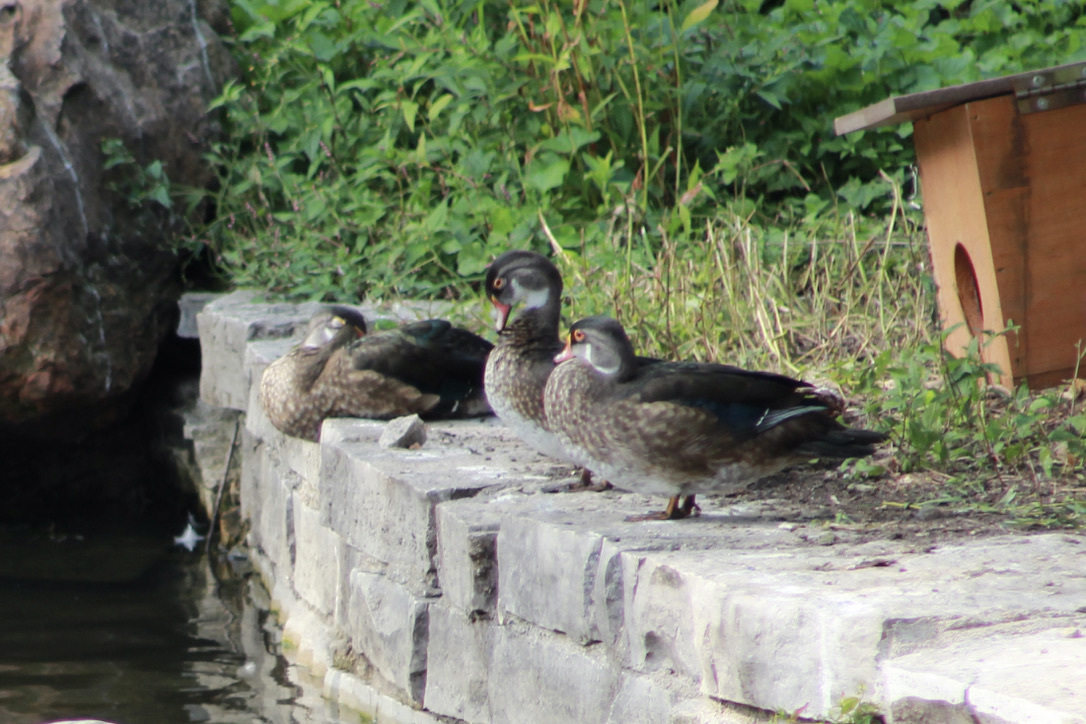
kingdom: Animalia
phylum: Chordata
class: Aves
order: Anseriformes
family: Anatidae
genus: Aix
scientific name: Aix sponsa
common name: Wood duck
